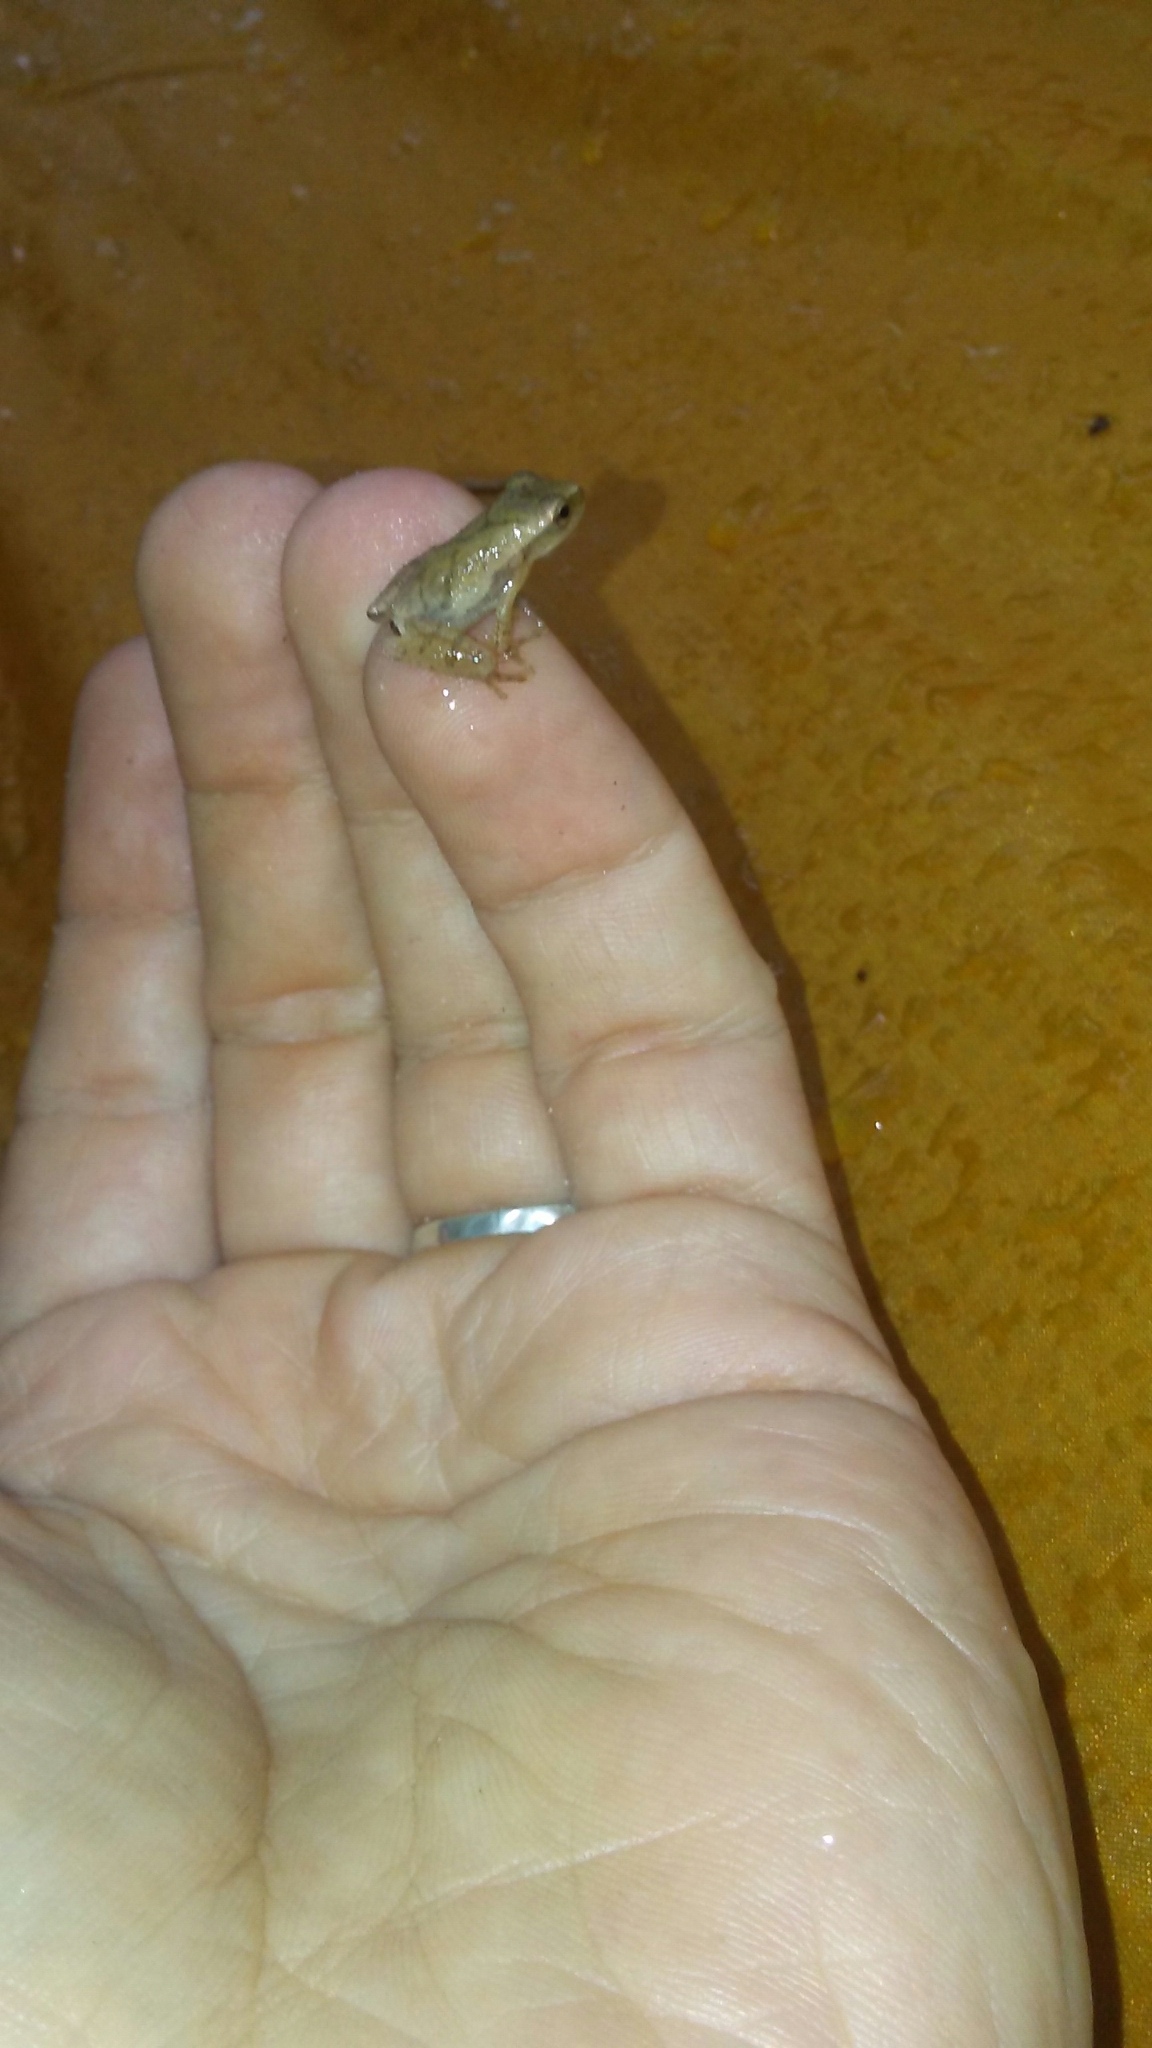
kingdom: Animalia
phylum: Chordata
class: Amphibia
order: Anura
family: Hylidae
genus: Pseudacris
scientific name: Pseudacris crucifer
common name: Spring peeper
